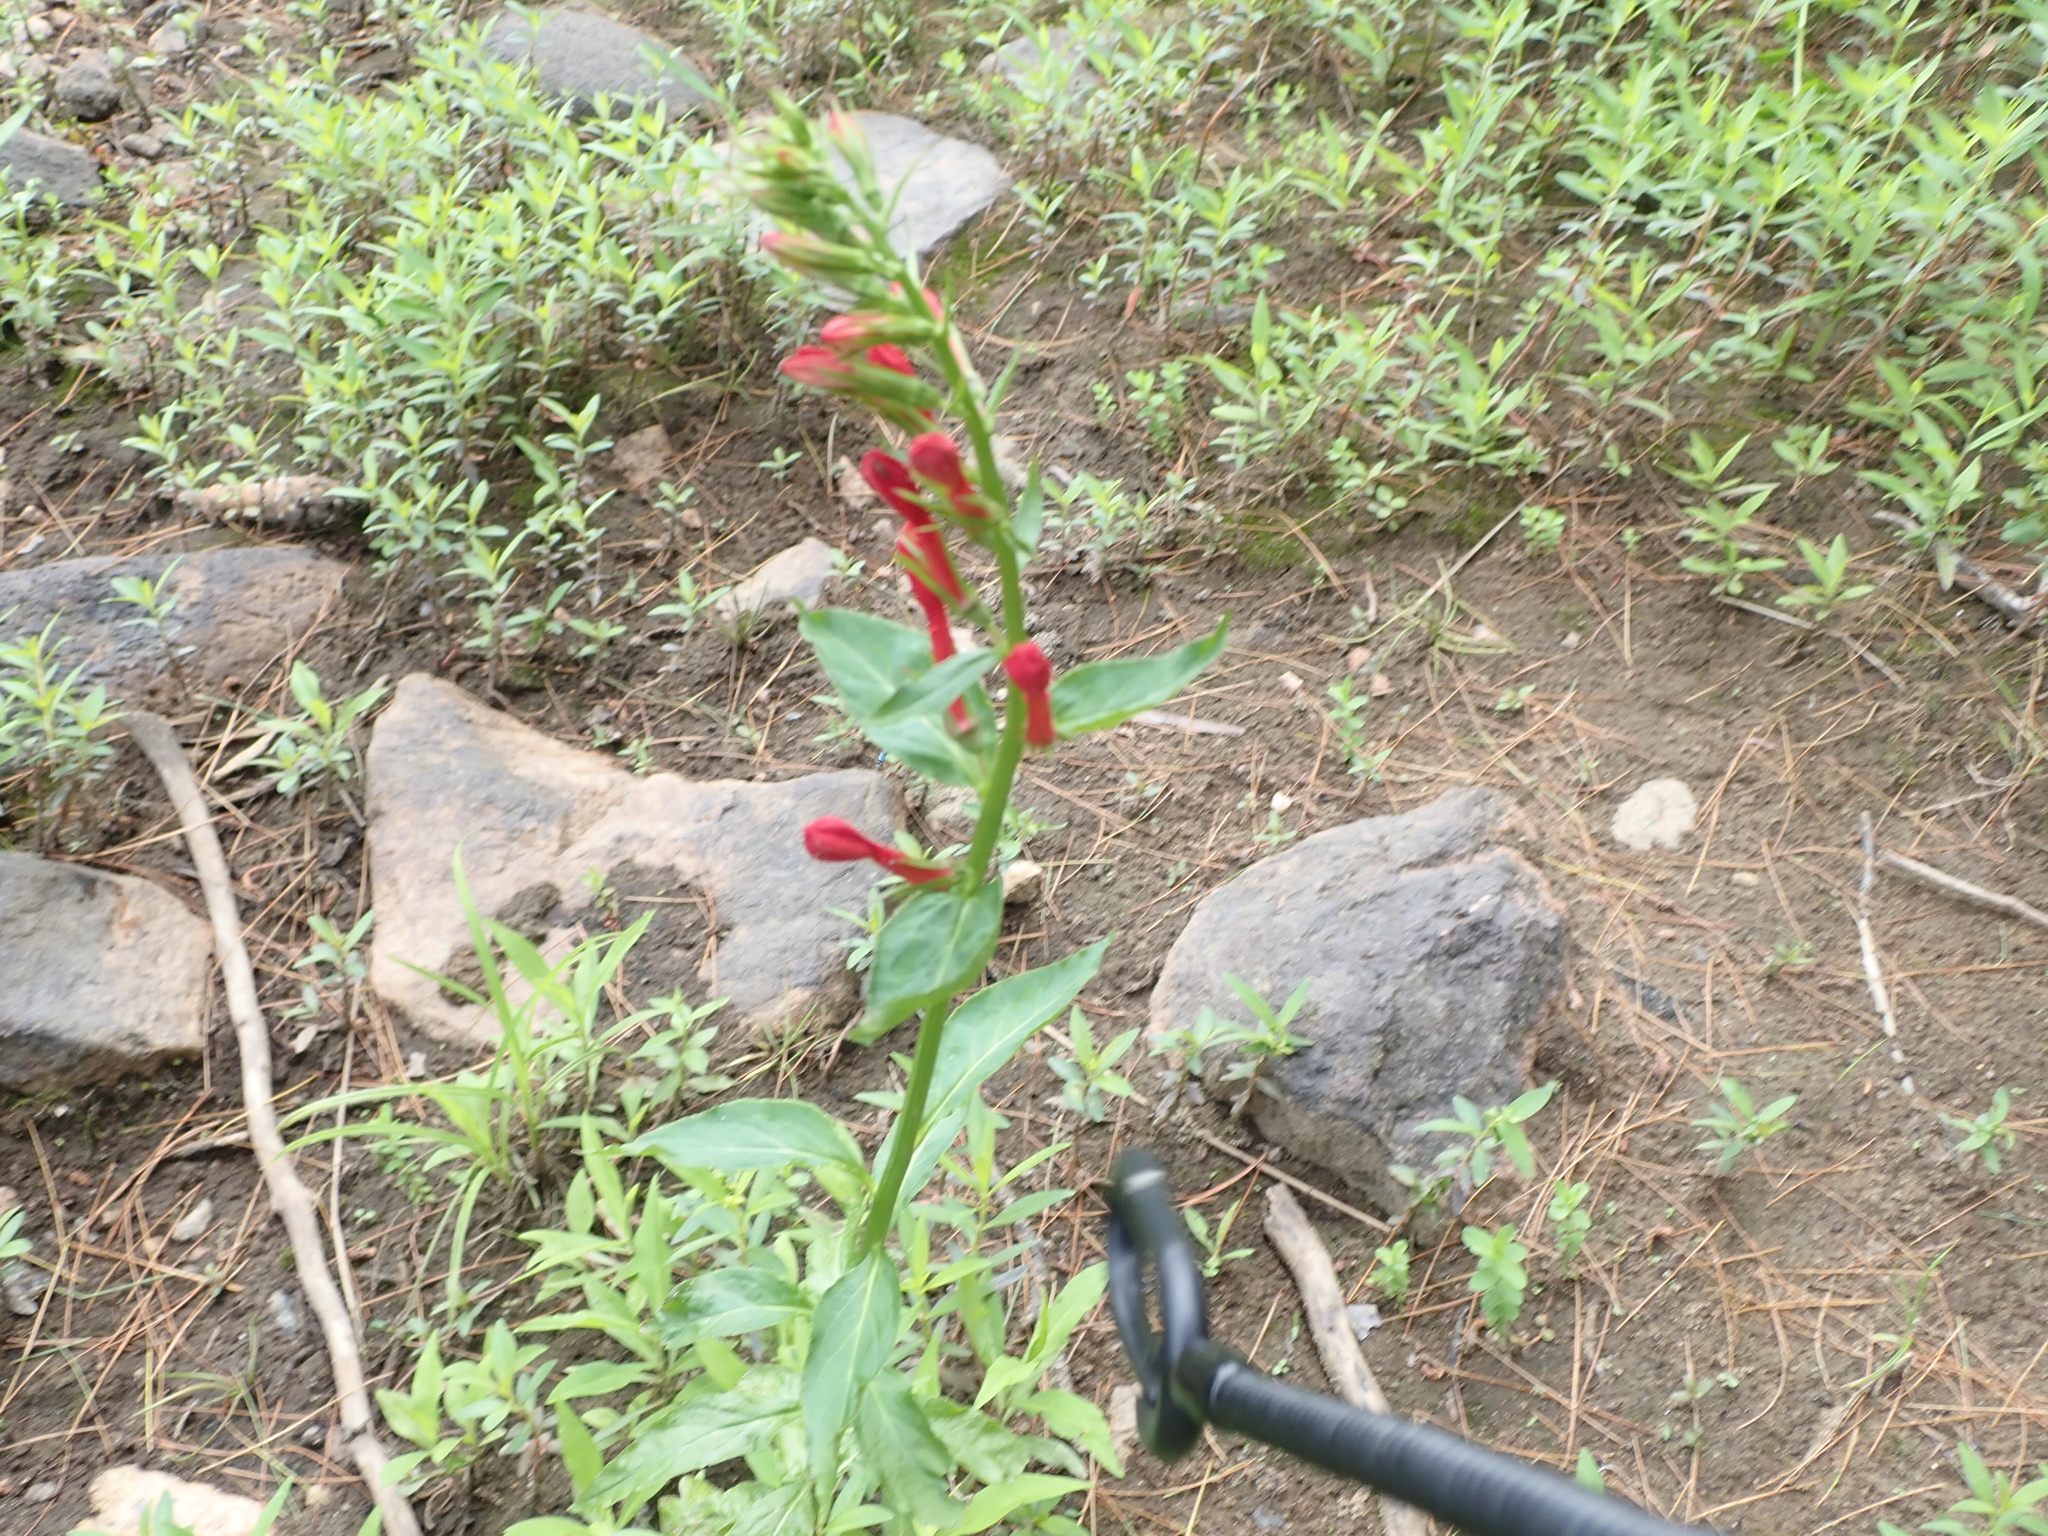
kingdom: Plantae
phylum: Tracheophyta
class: Magnoliopsida
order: Asterales
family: Campanulaceae
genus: Lobelia
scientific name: Lobelia cardinalis
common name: Cardinal flower
